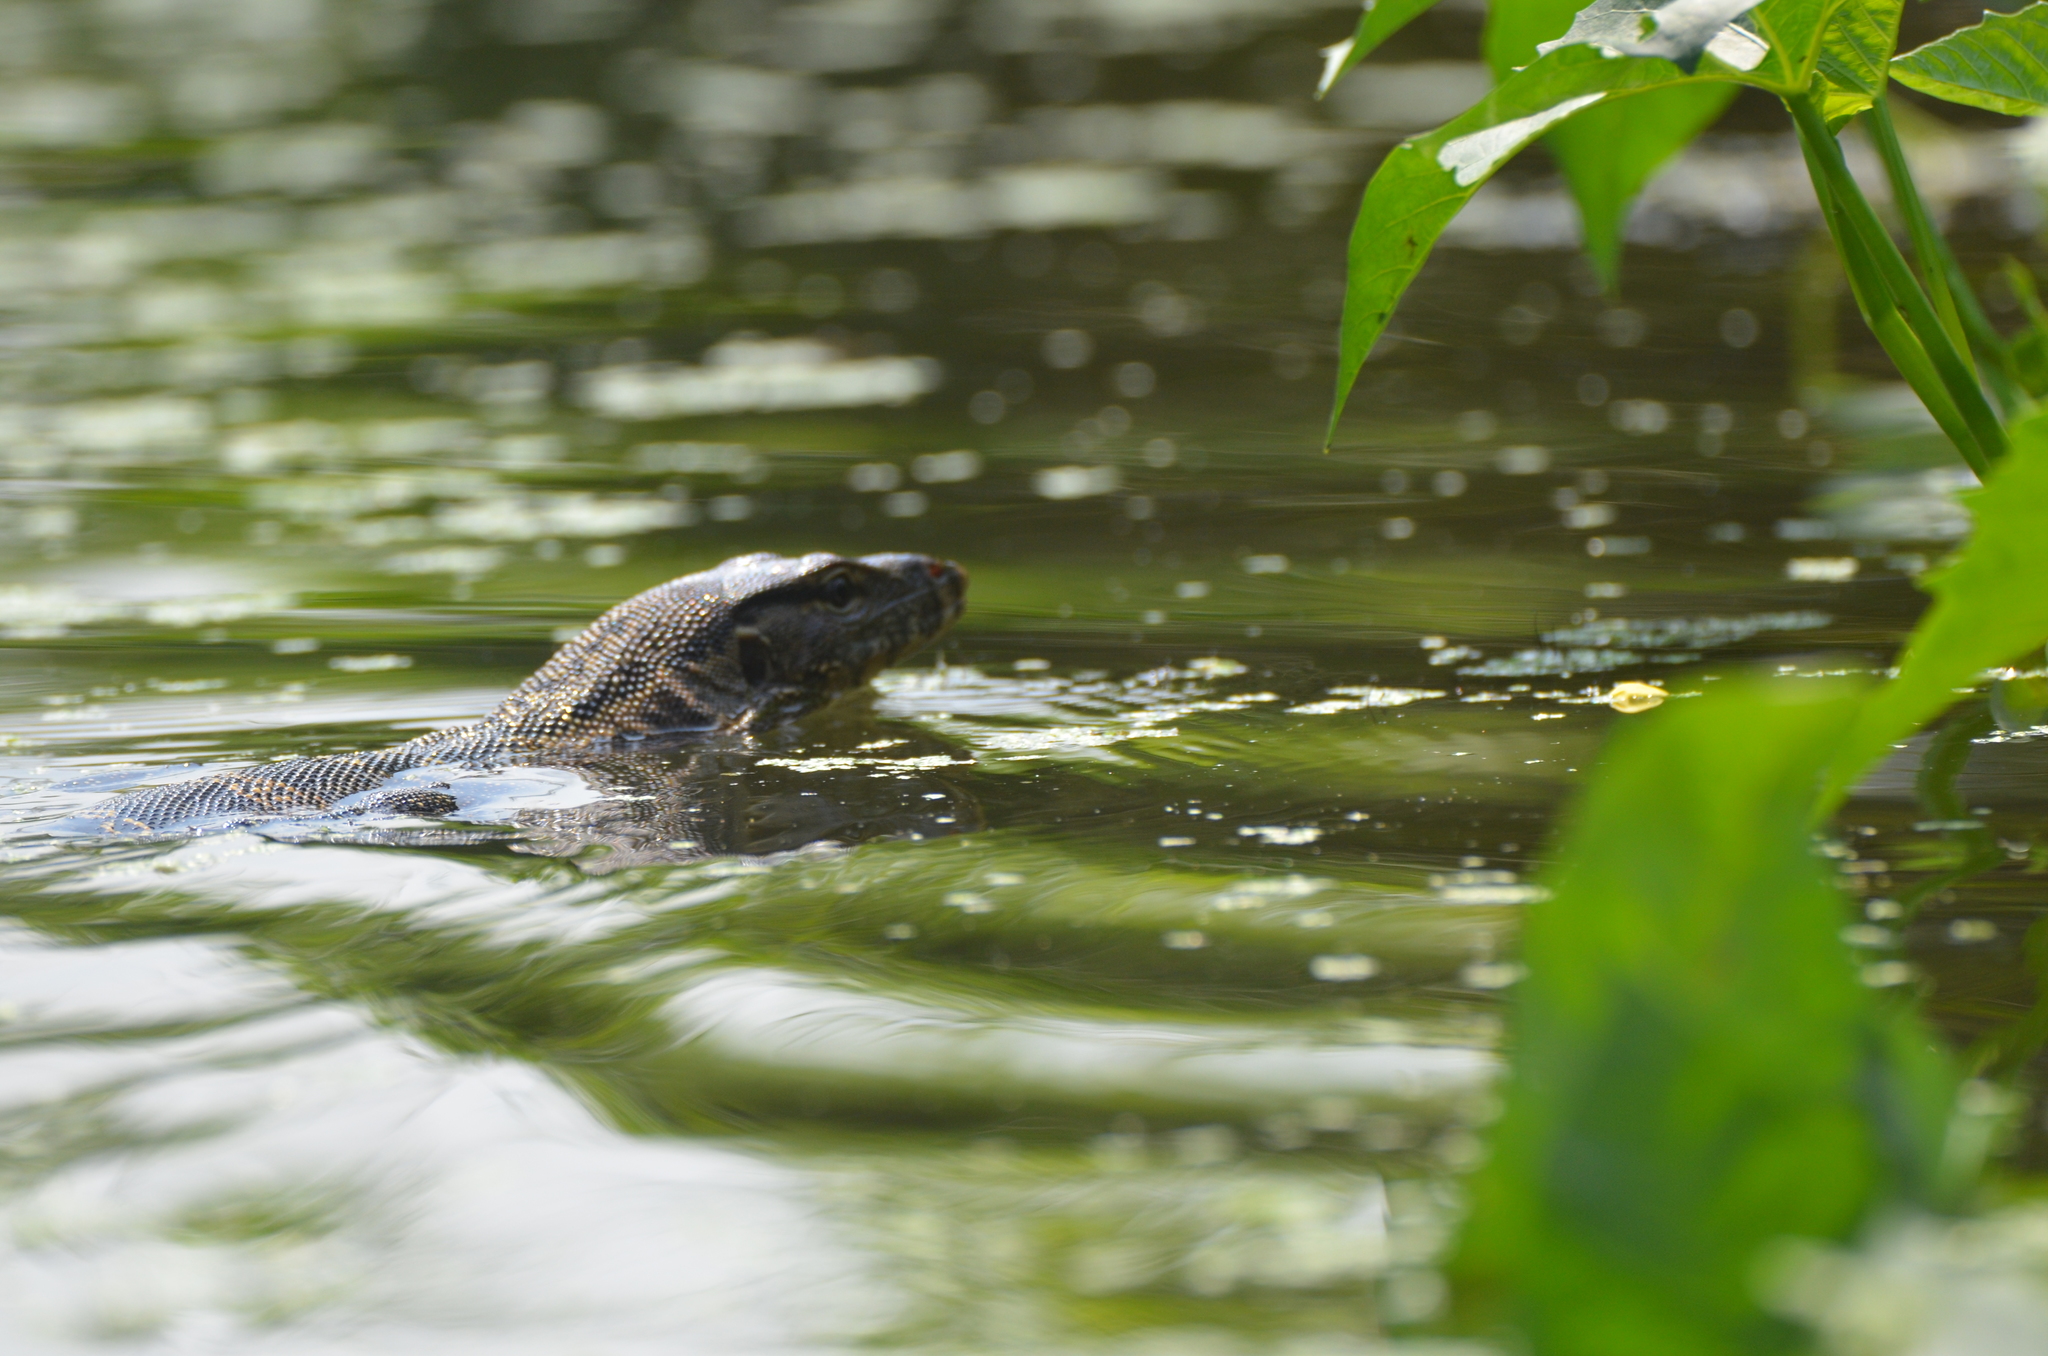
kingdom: Animalia
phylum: Chordata
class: Squamata
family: Varanidae
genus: Varanus
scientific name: Varanus salvator
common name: Common water monitor
